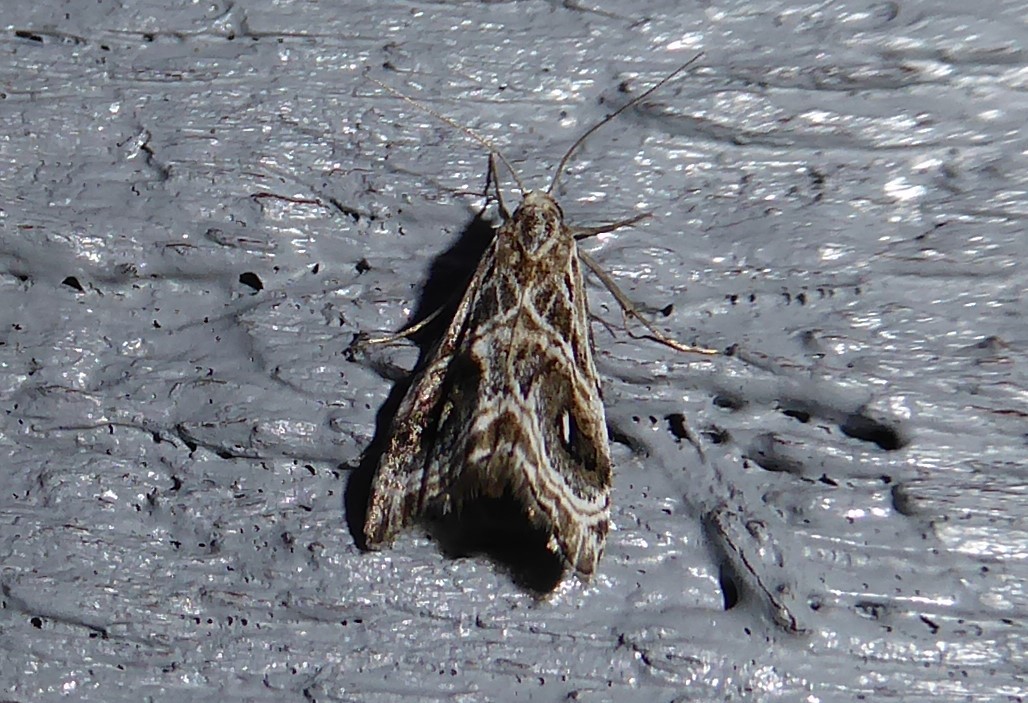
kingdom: Animalia
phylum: Arthropoda
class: Insecta
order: Lepidoptera
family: Crambidae
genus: Gadira
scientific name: Gadira acerella
